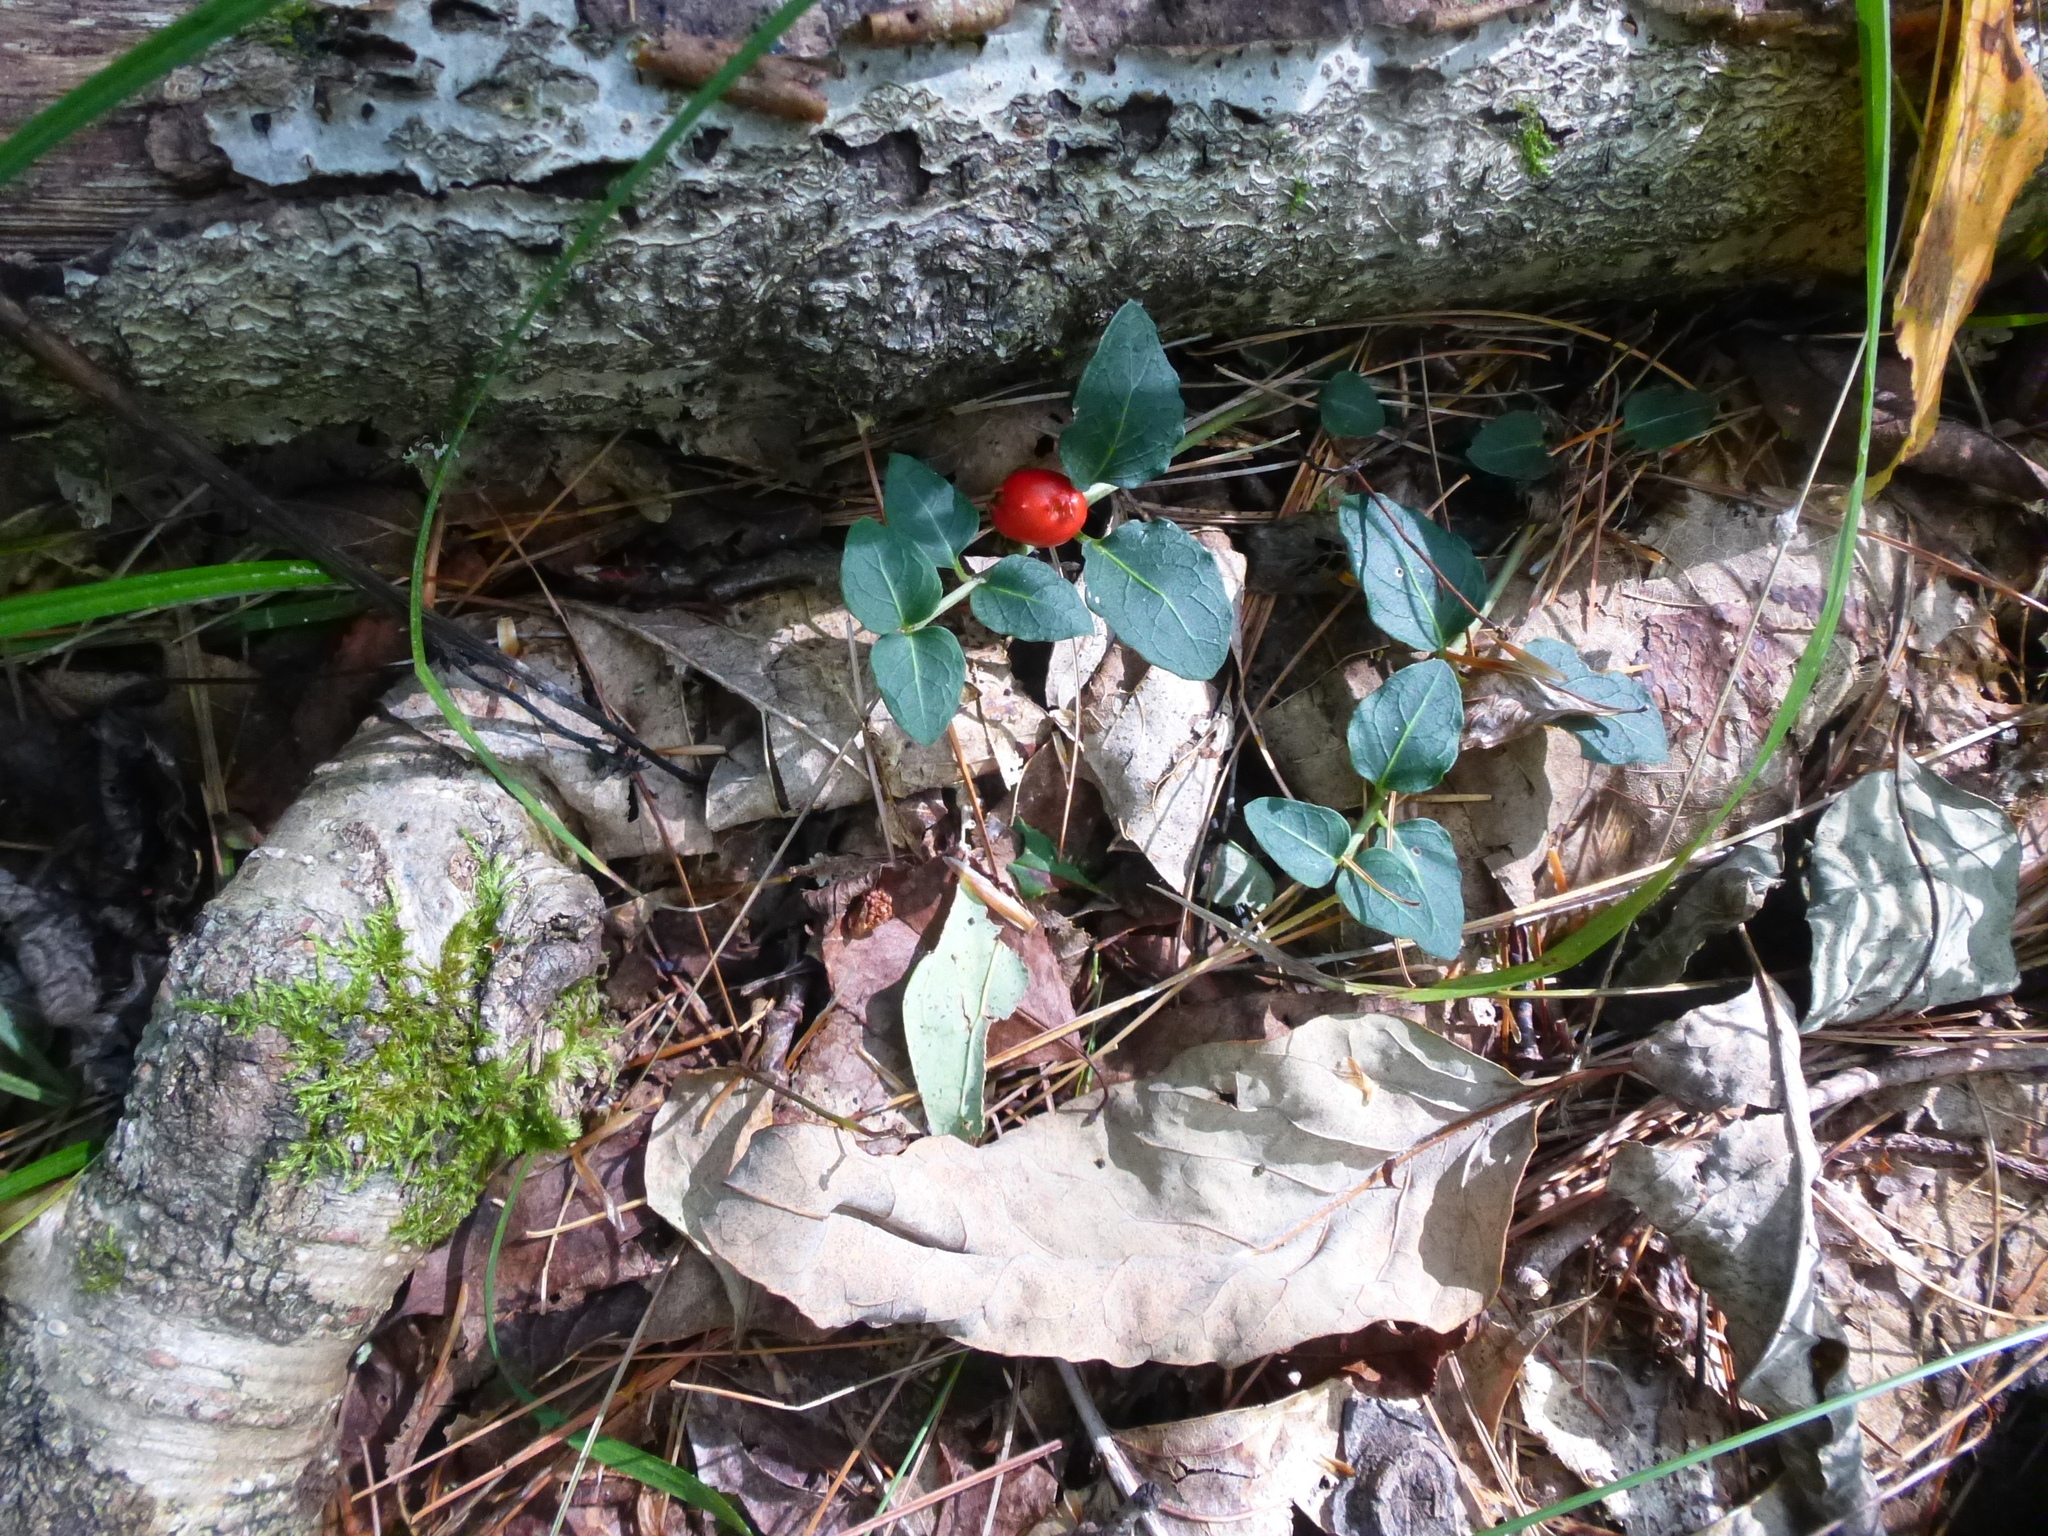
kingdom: Plantae
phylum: Tracheophyta
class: Magnoliopsida
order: Gentianales
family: Rubiaceae
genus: Mitchella
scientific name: Mitchella repens
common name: Partridge-berry
